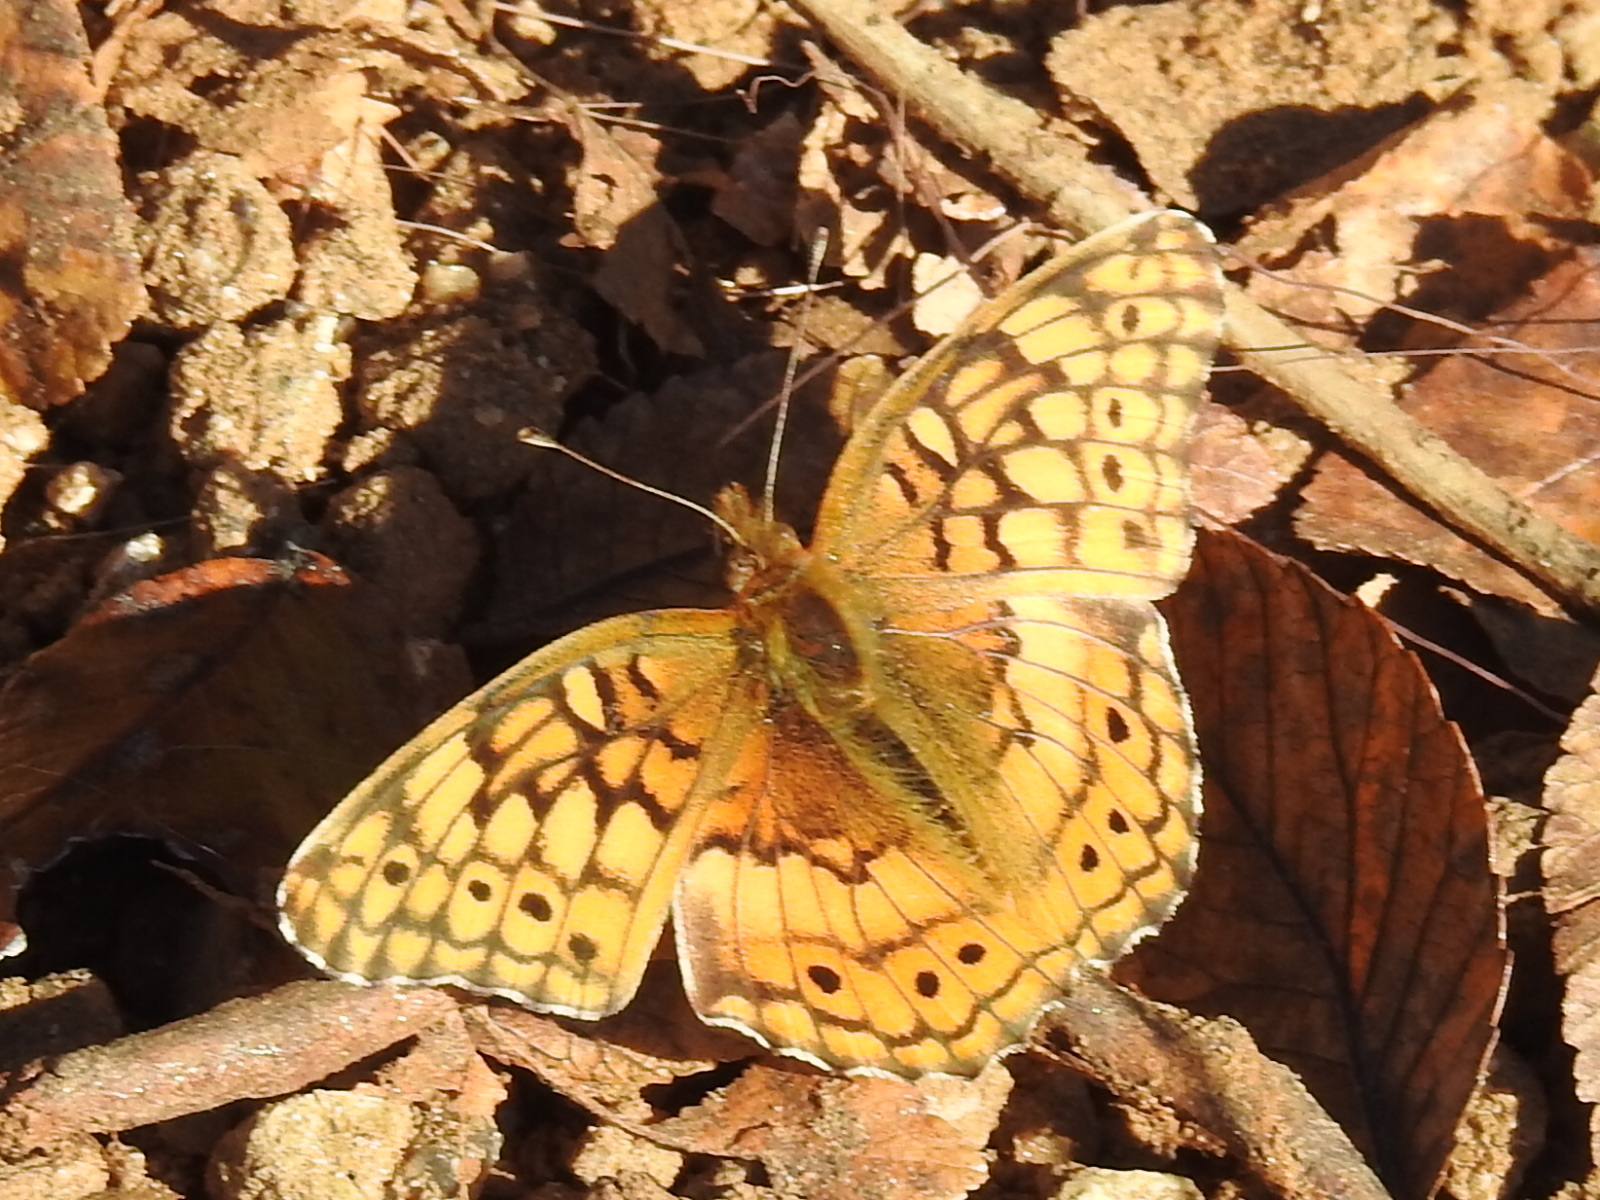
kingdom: Animalia
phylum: Arthropoda
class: Insecta
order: Lepidoptera
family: Nymphalidae
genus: Euptoieta
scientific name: Euptoieta claudia
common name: Variegated fritillary
